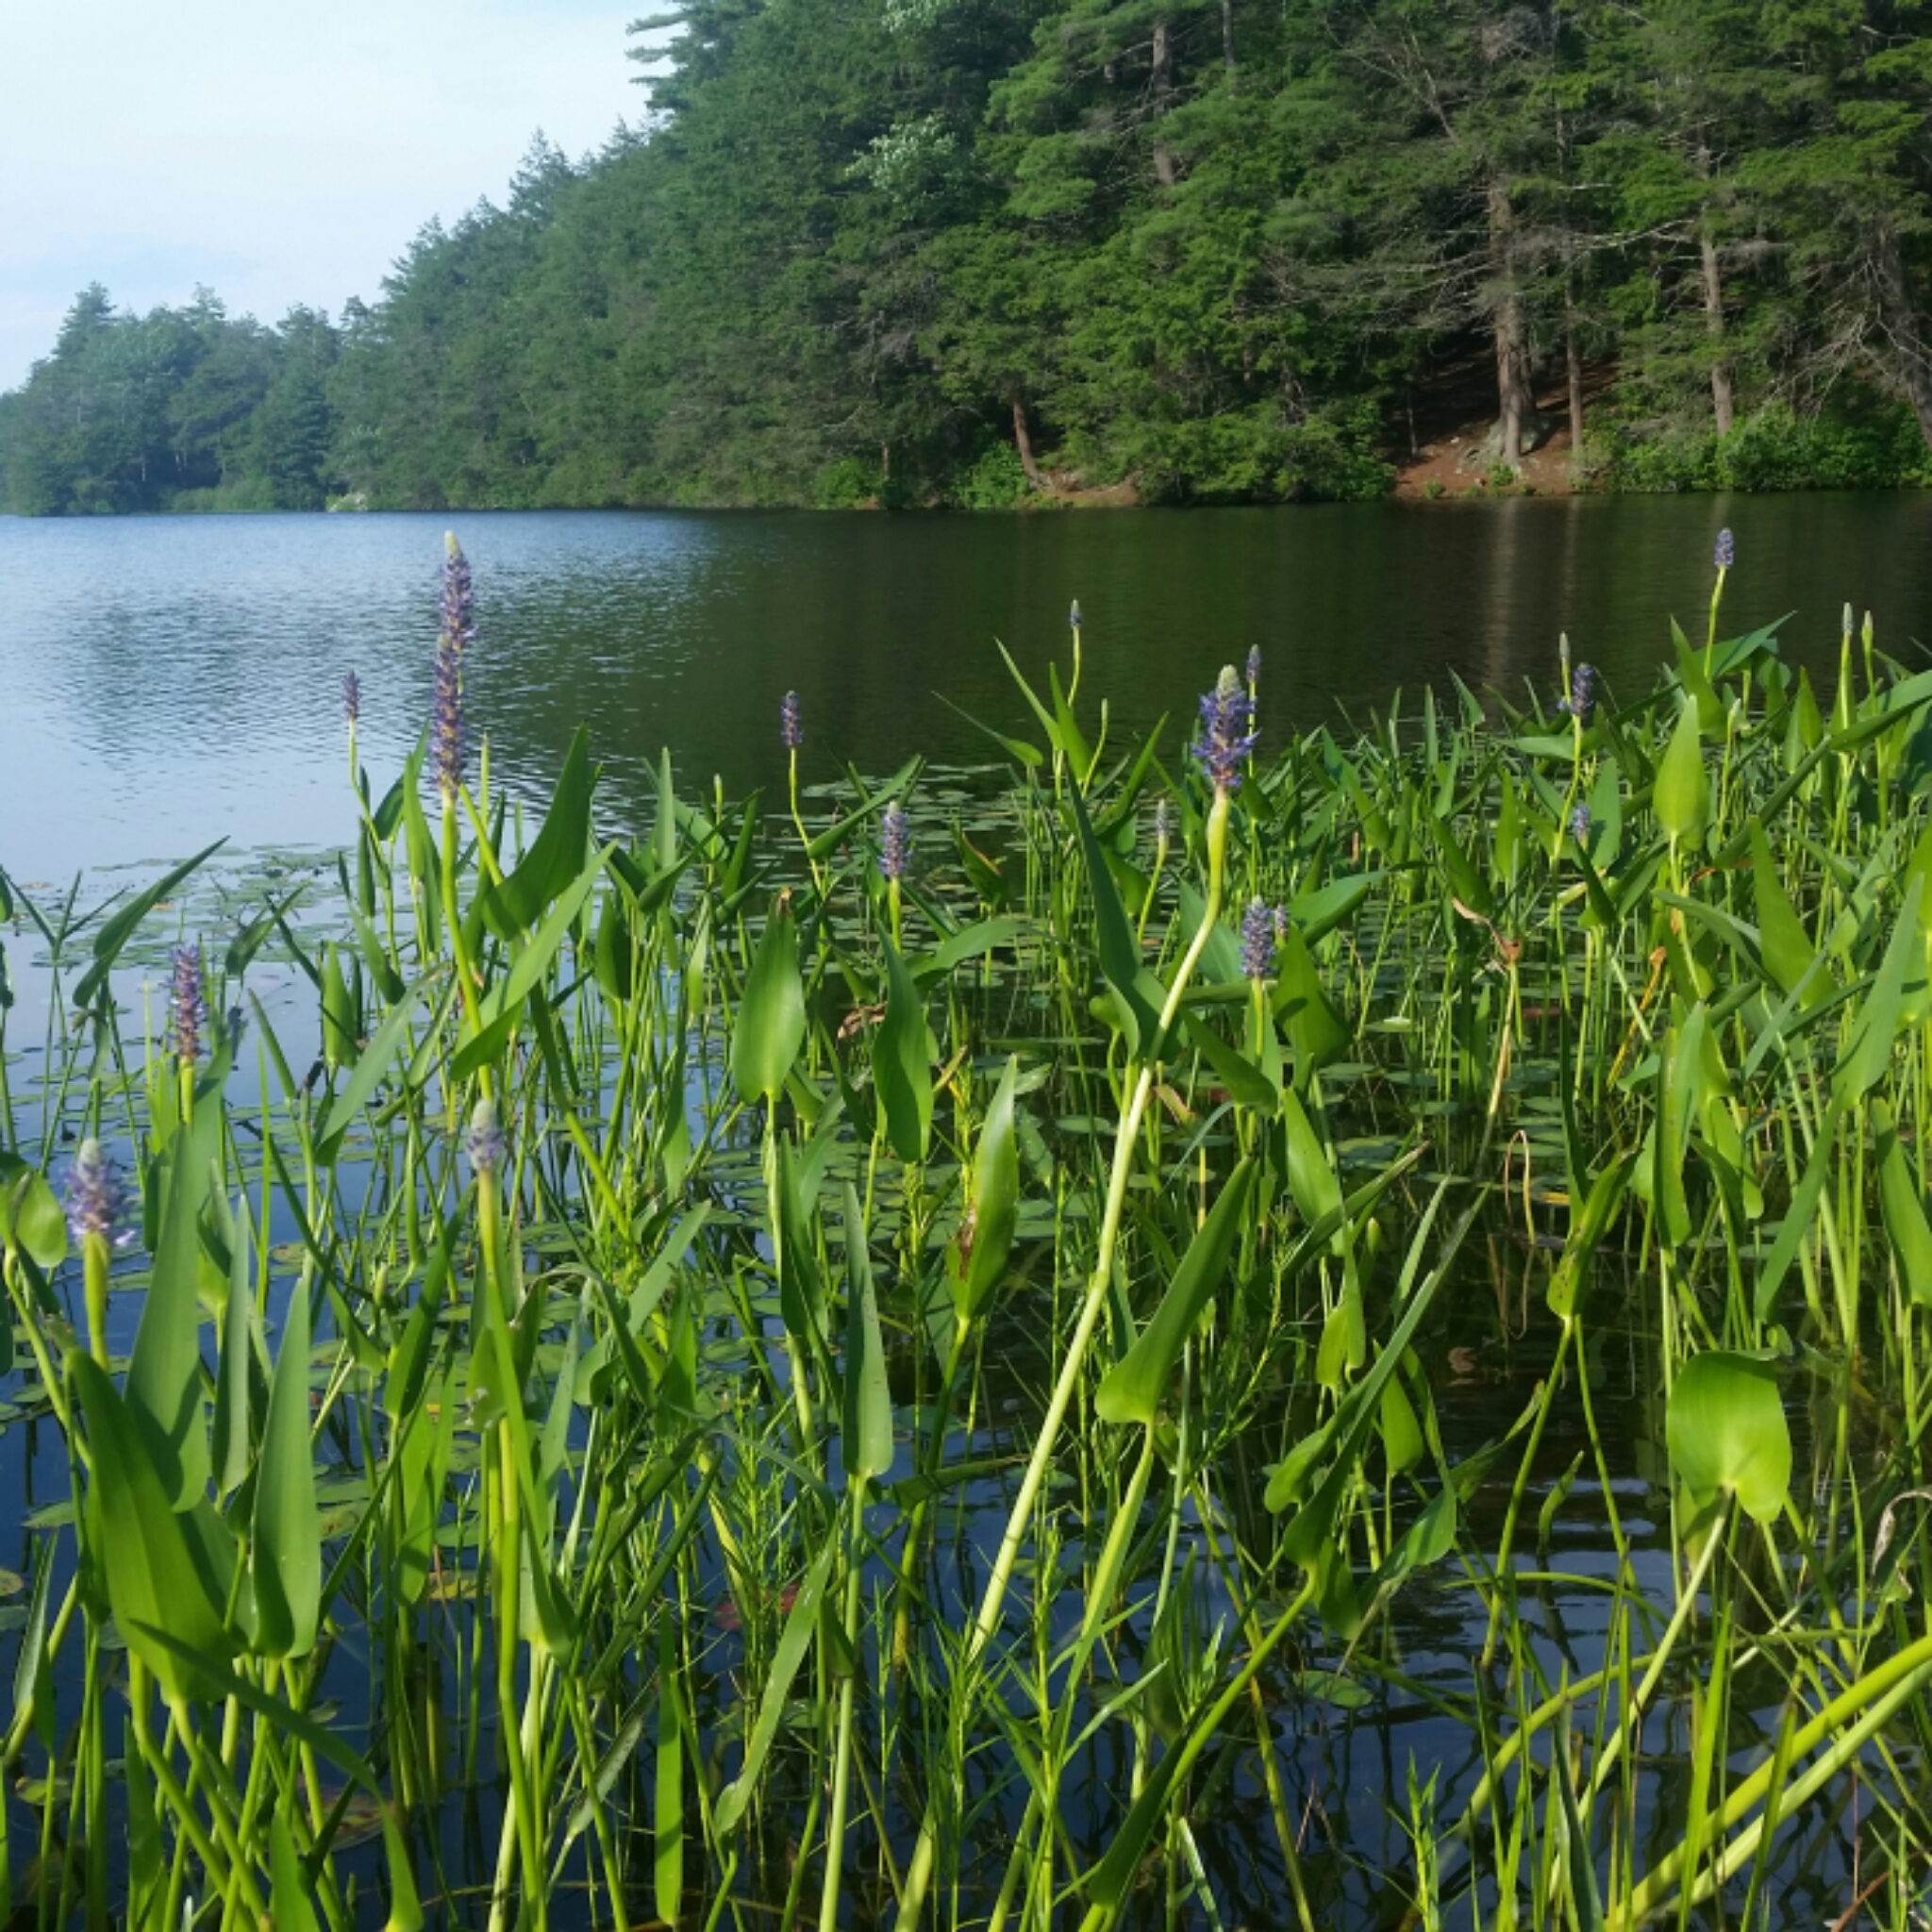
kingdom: Plantae
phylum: Tracheophyta
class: Liliopsida
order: Commelinales
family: Pontederiaceae
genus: Pontederia
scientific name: Pontederia cordata
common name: Pickerelweed
